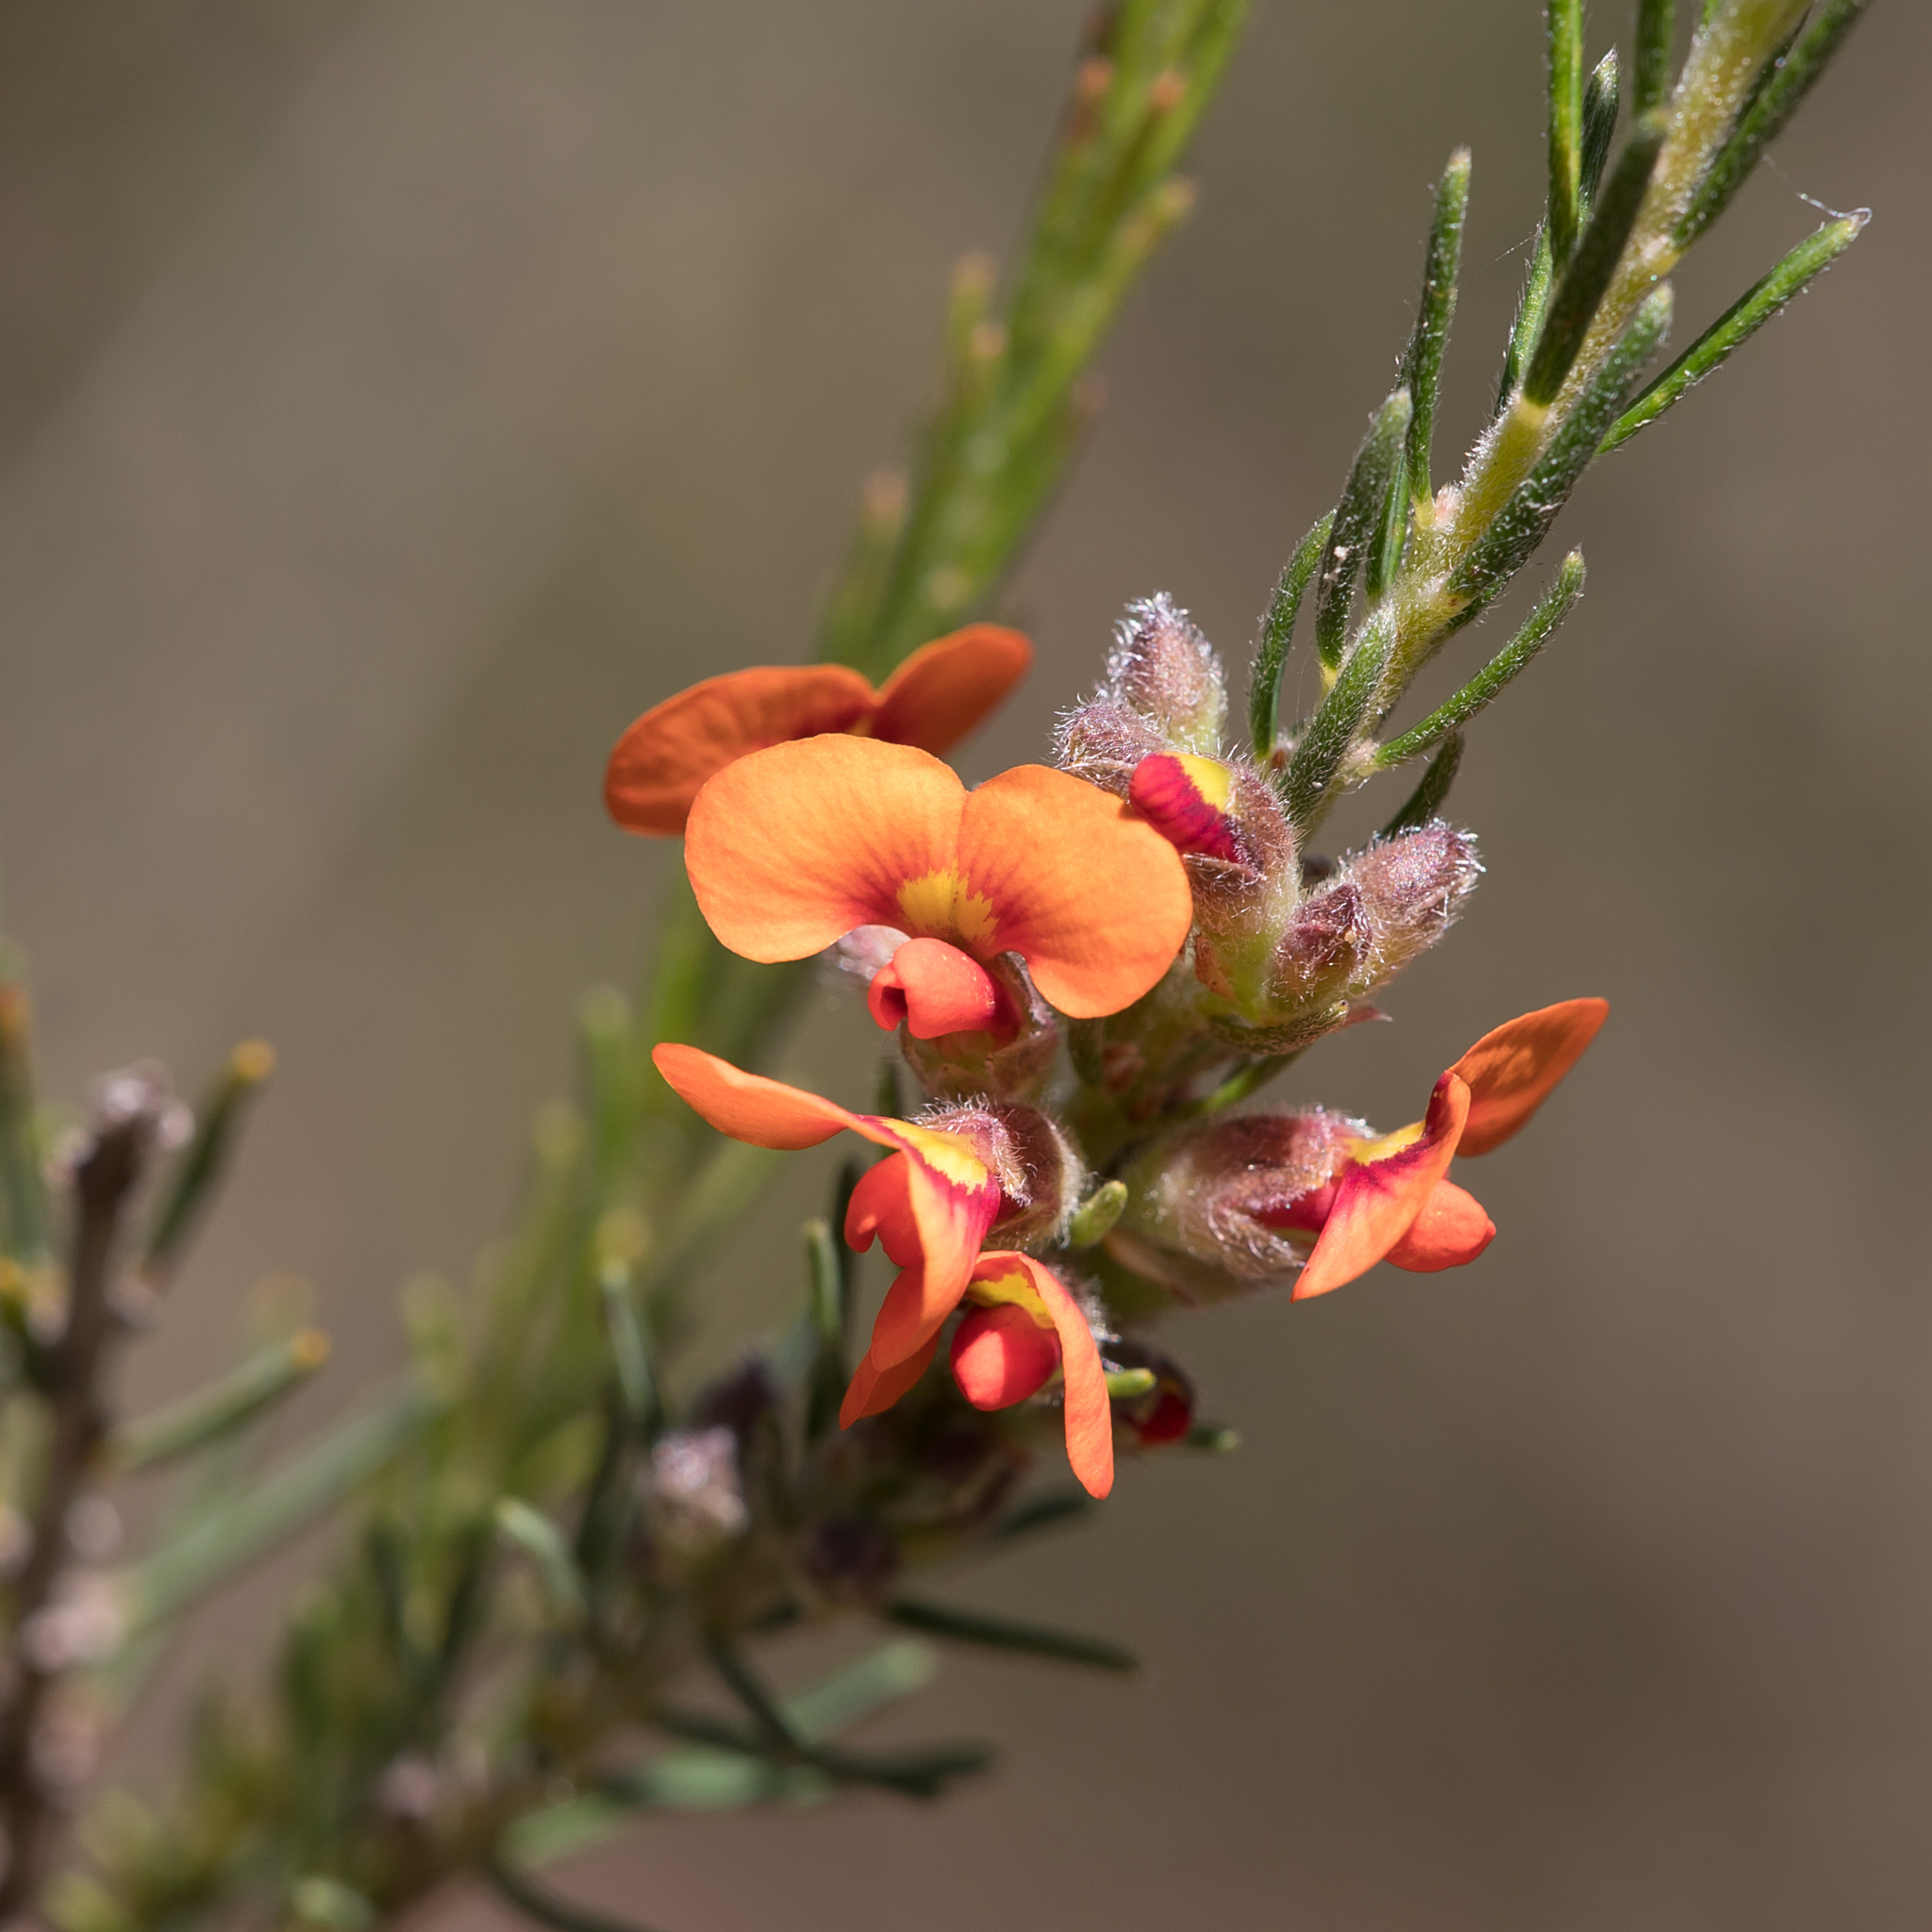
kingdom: Plantae
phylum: Tracheophyta
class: Magnoliopsida
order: Fabales
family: Fabaceae
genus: Dillwynia
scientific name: Dillwynia sericea
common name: Showy parrot-pea
